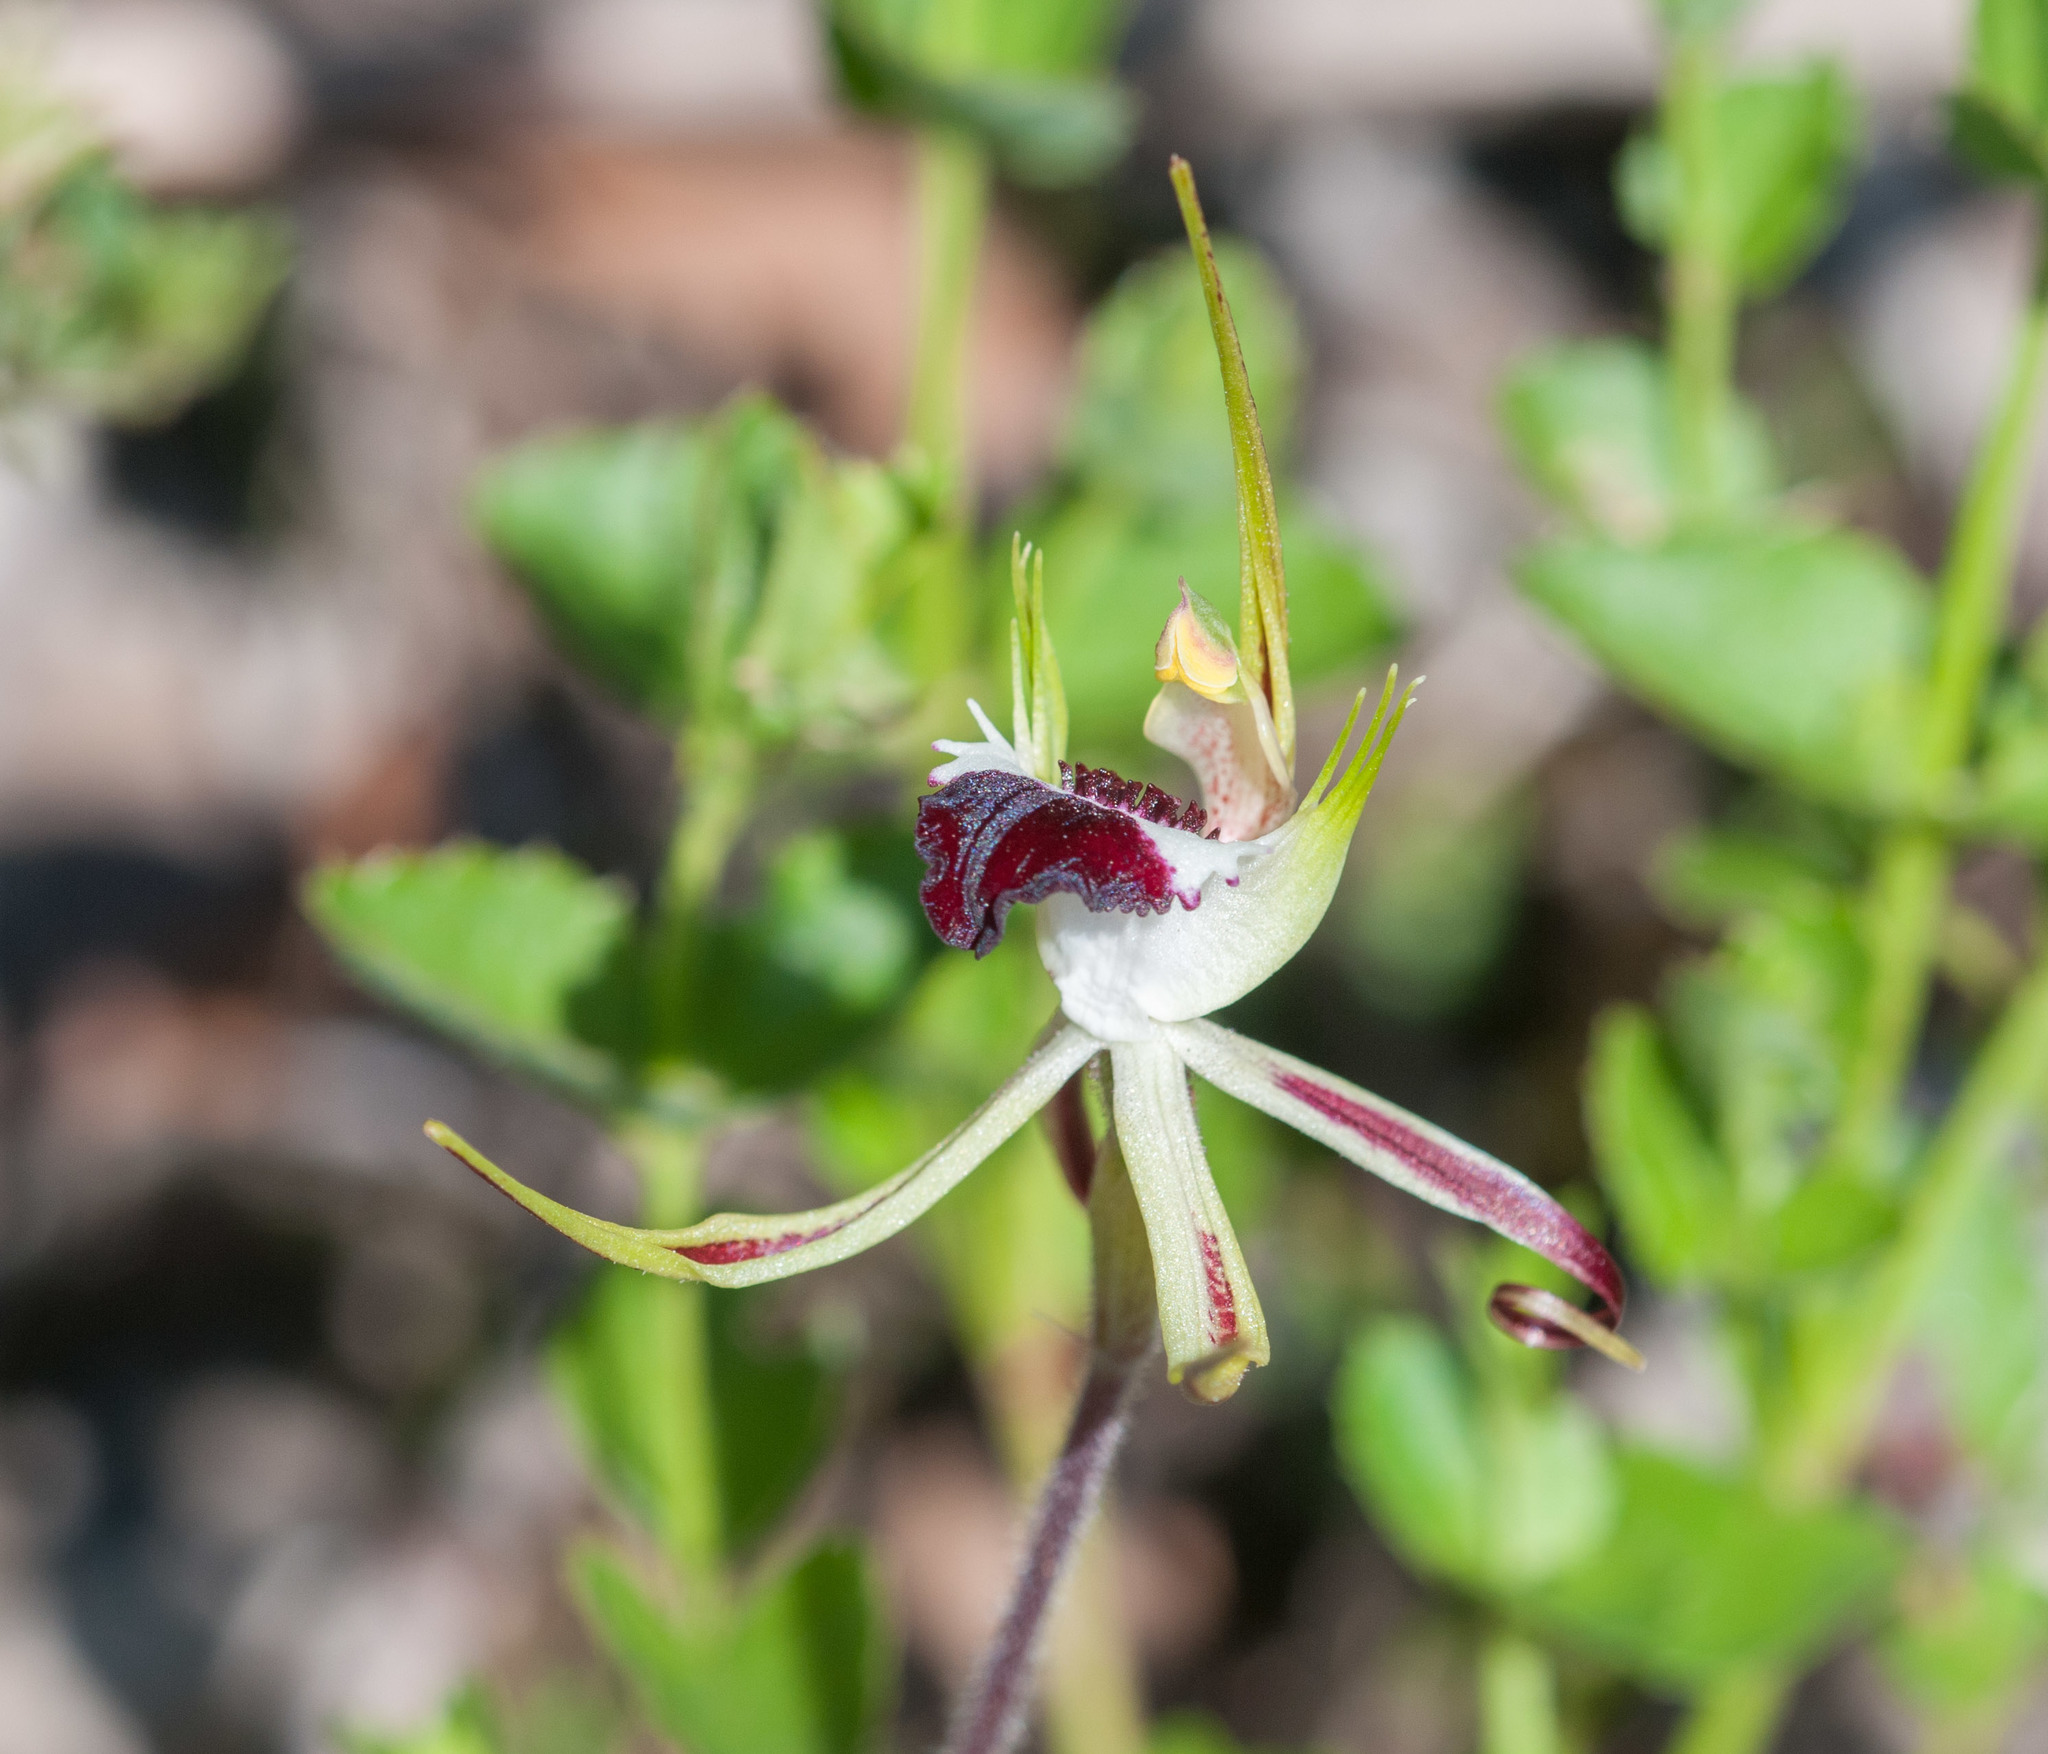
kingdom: Plantae
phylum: Tracheophyta
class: Liliopsida
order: Asparagales
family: Orchidaceae
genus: Caladenia
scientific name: Caladenia tentaculata
